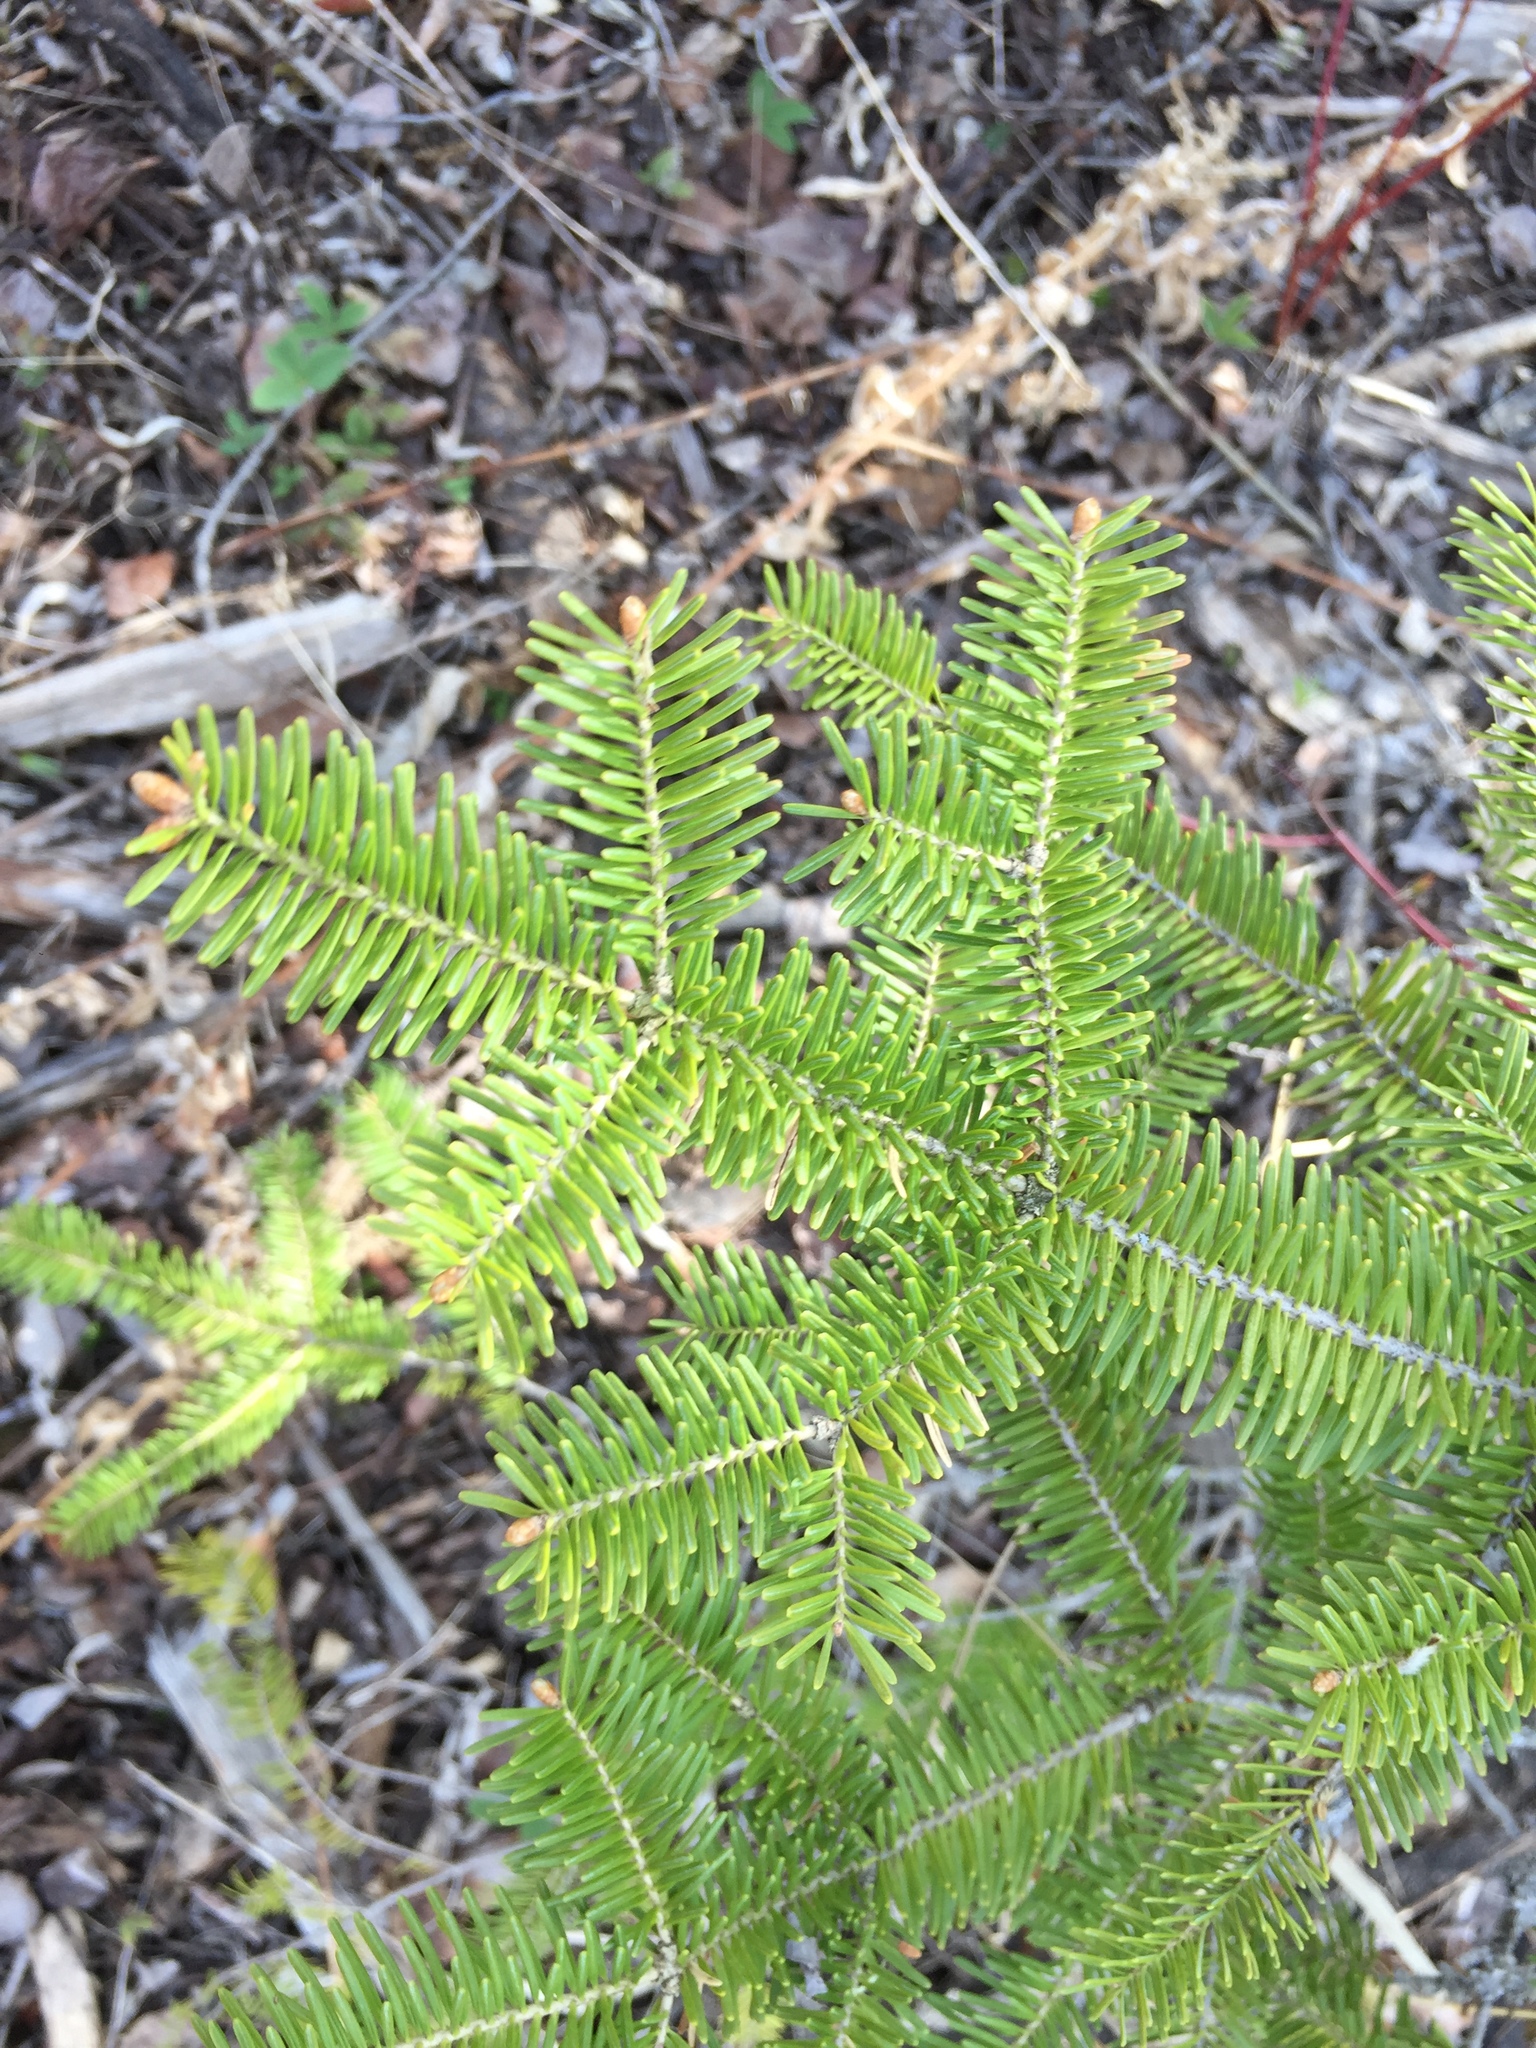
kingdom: Plantae
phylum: Tracheophyta
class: Pinopsida
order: Pinales
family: Pinaceae
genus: Abies
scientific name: Abies balsamea
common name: Balsam fir
